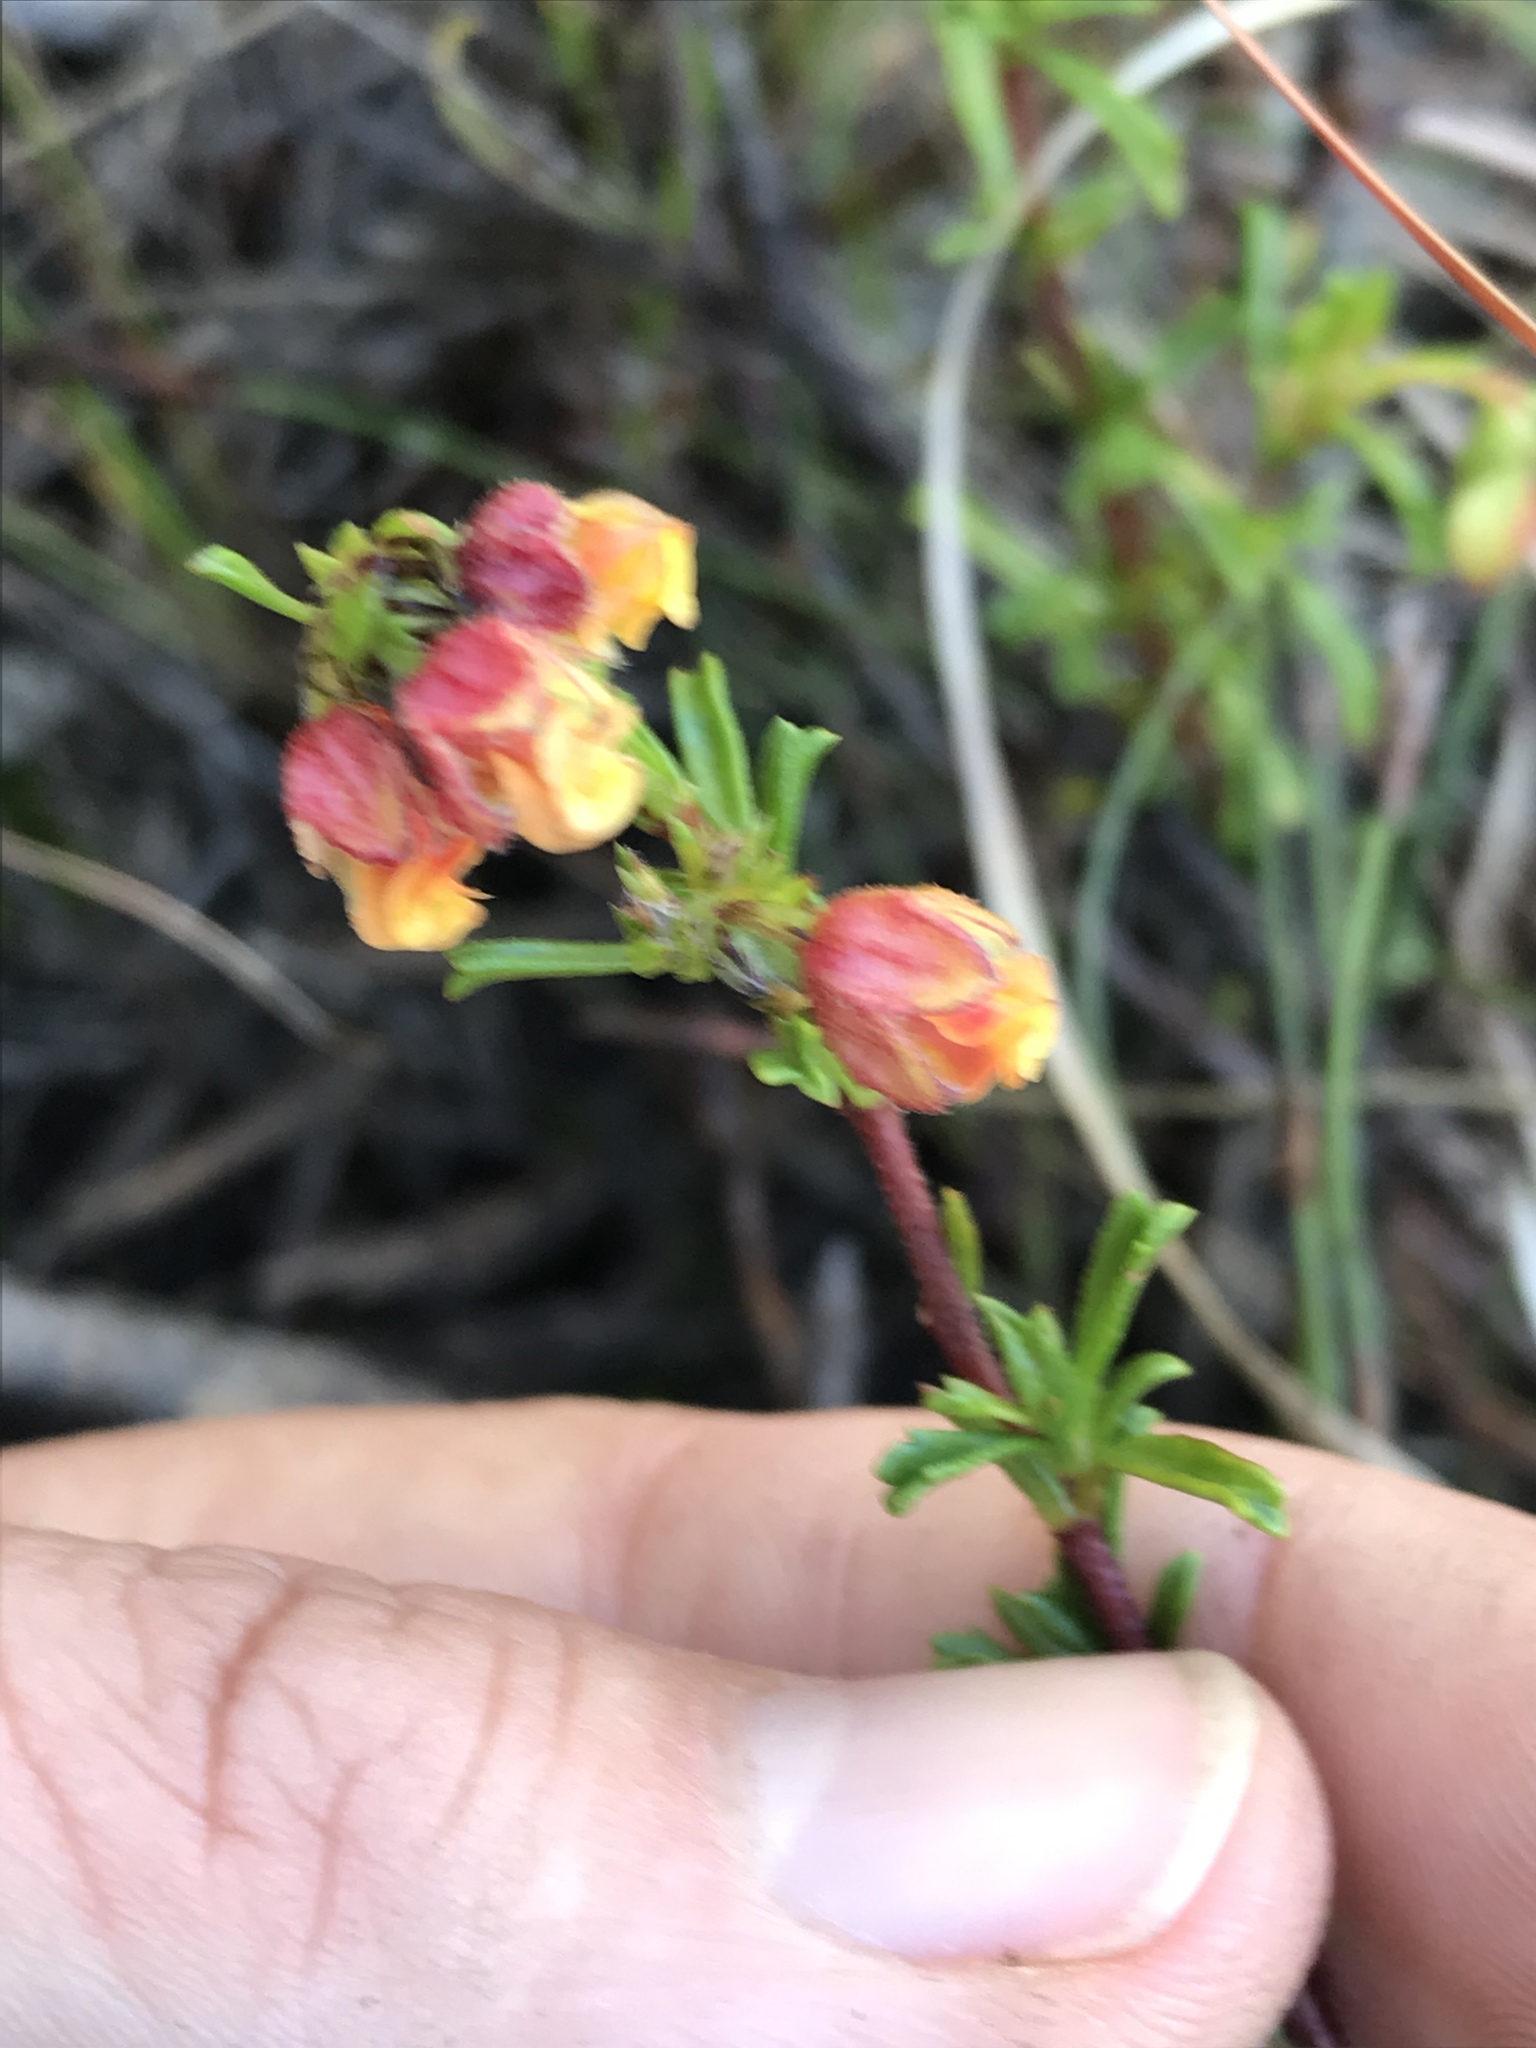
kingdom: Plantae
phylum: Tracheophyta
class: Magnoliopsida
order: Malvales
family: Malvaceae
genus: Hermannia
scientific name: Hermannia rudis
